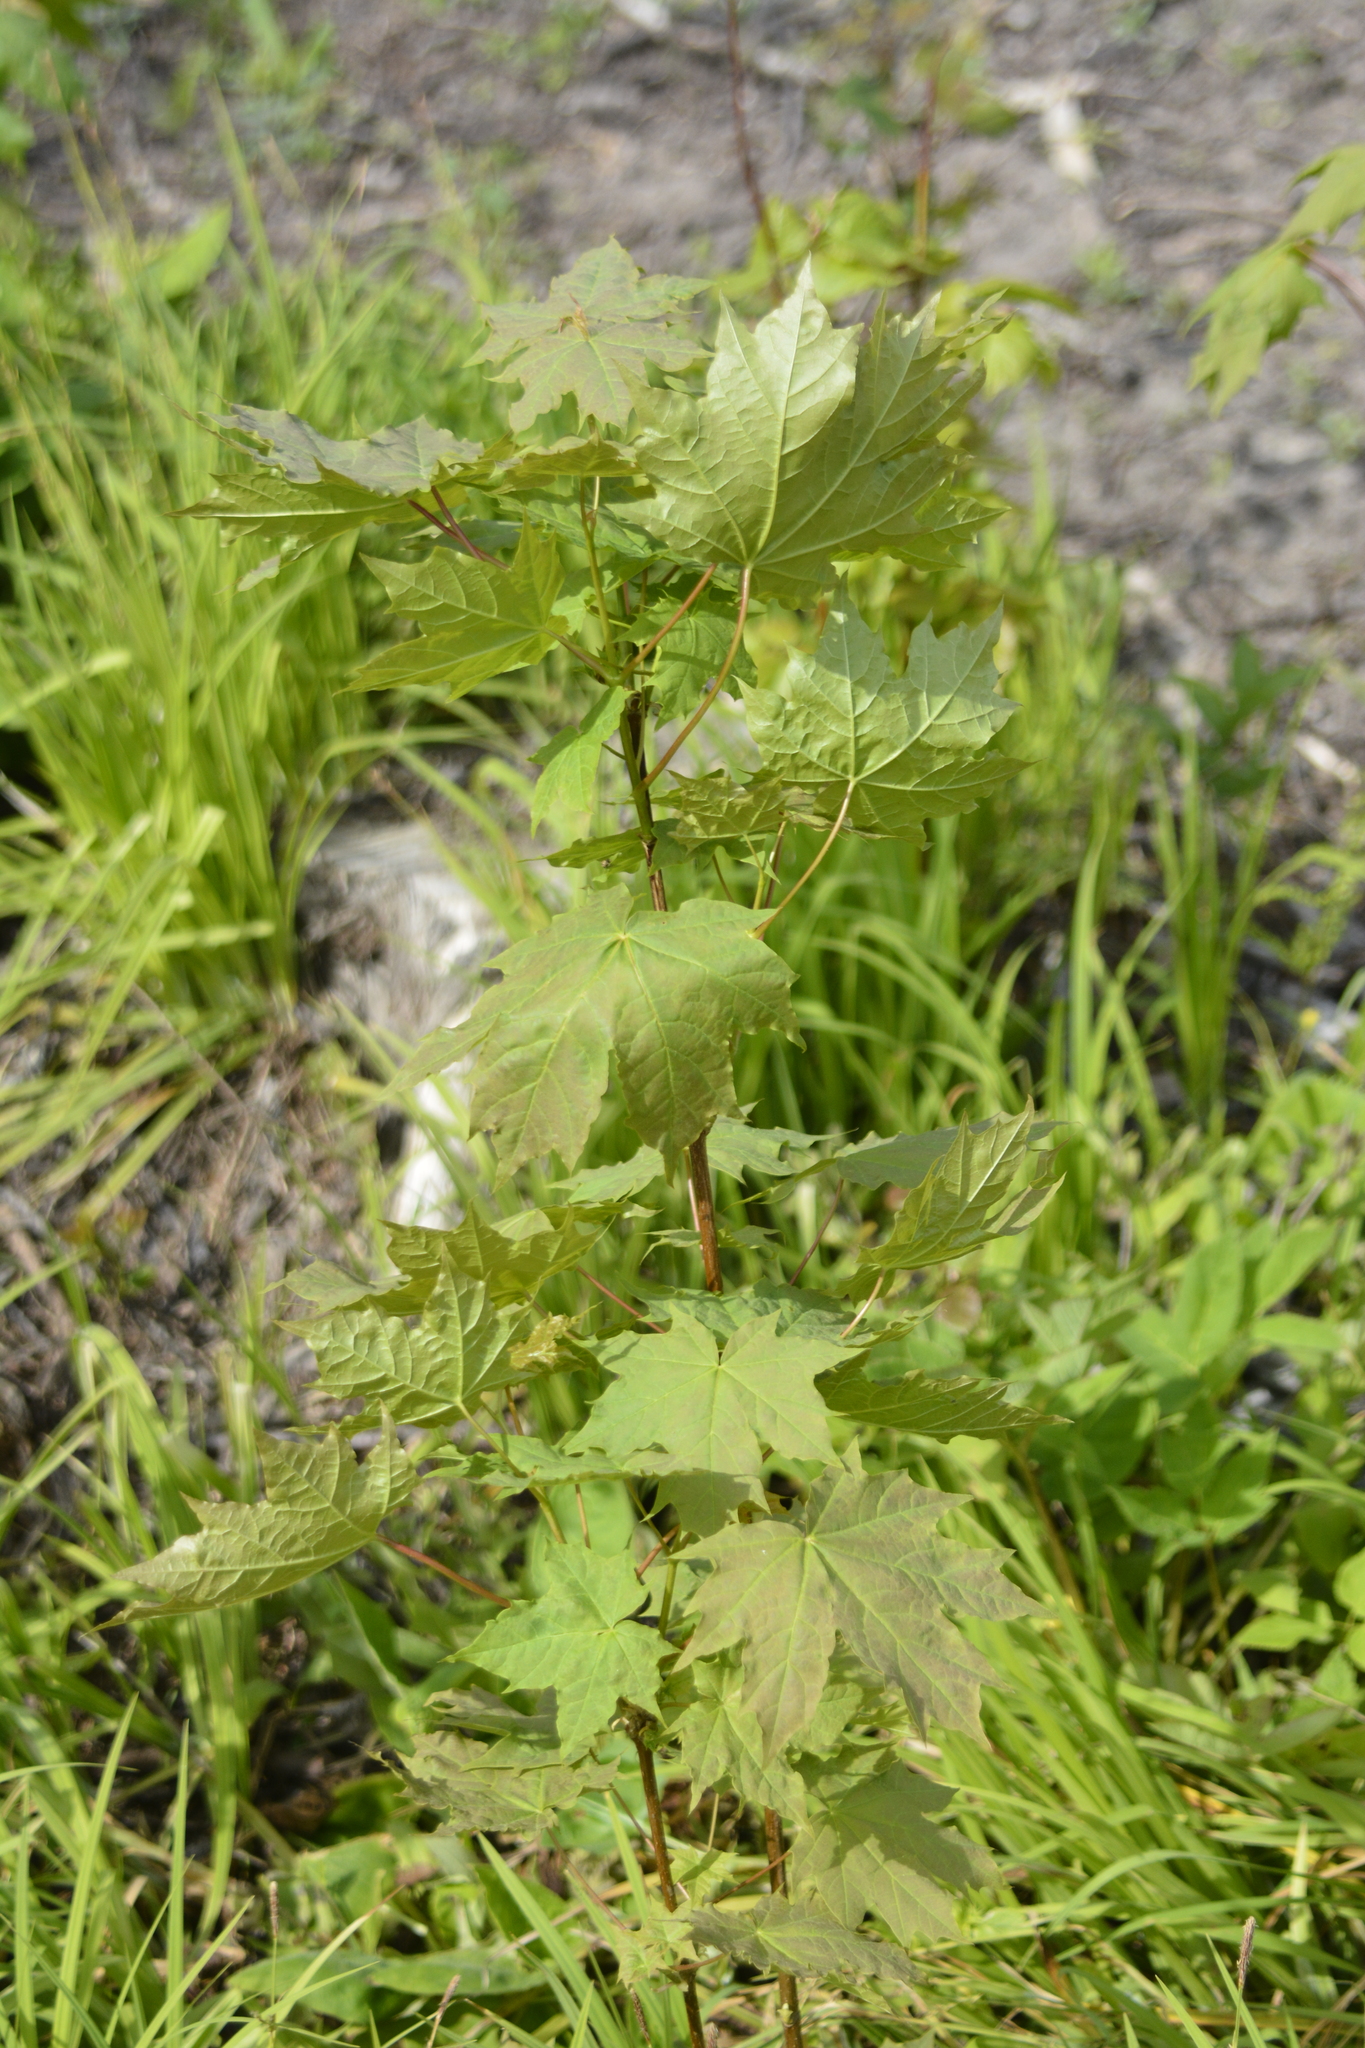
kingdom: Plantae
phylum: Tracheophyta
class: Magnoliopsida
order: Sapindales
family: Sapindaceae
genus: Acer
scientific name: Acer platanoides
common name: Norway maple
